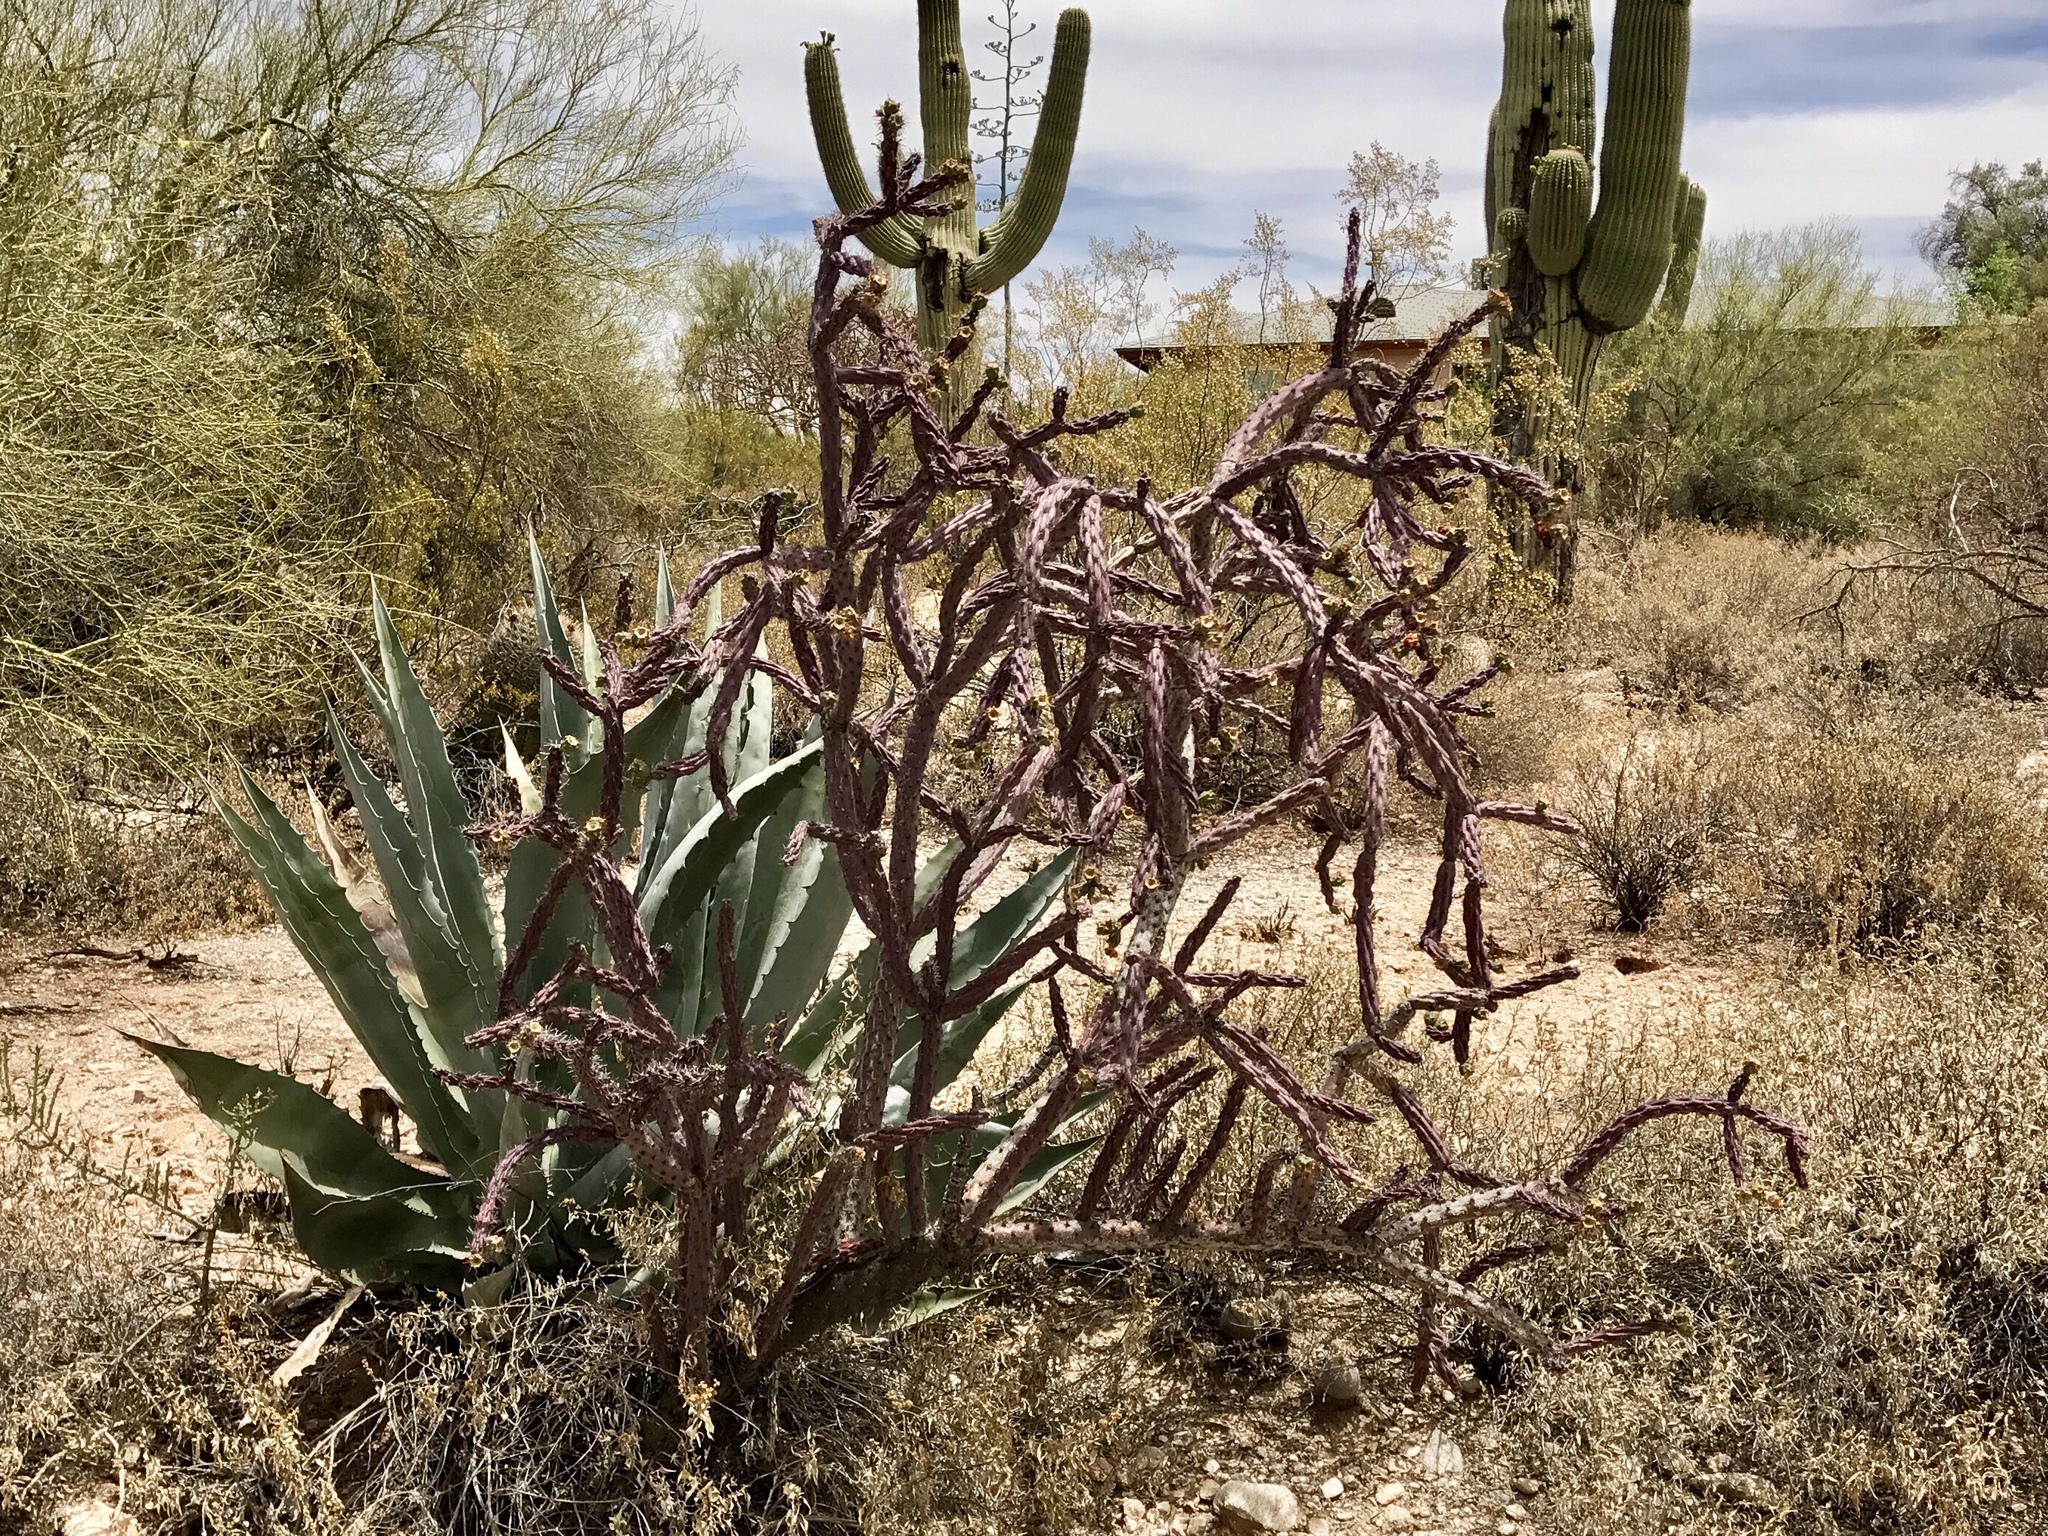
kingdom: Plantae
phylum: Tracheophyta
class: Magnoliopsida
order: Caryophyllales
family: Cactaceae
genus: Cylindropuntia
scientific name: Cylindropuntia thurberi
